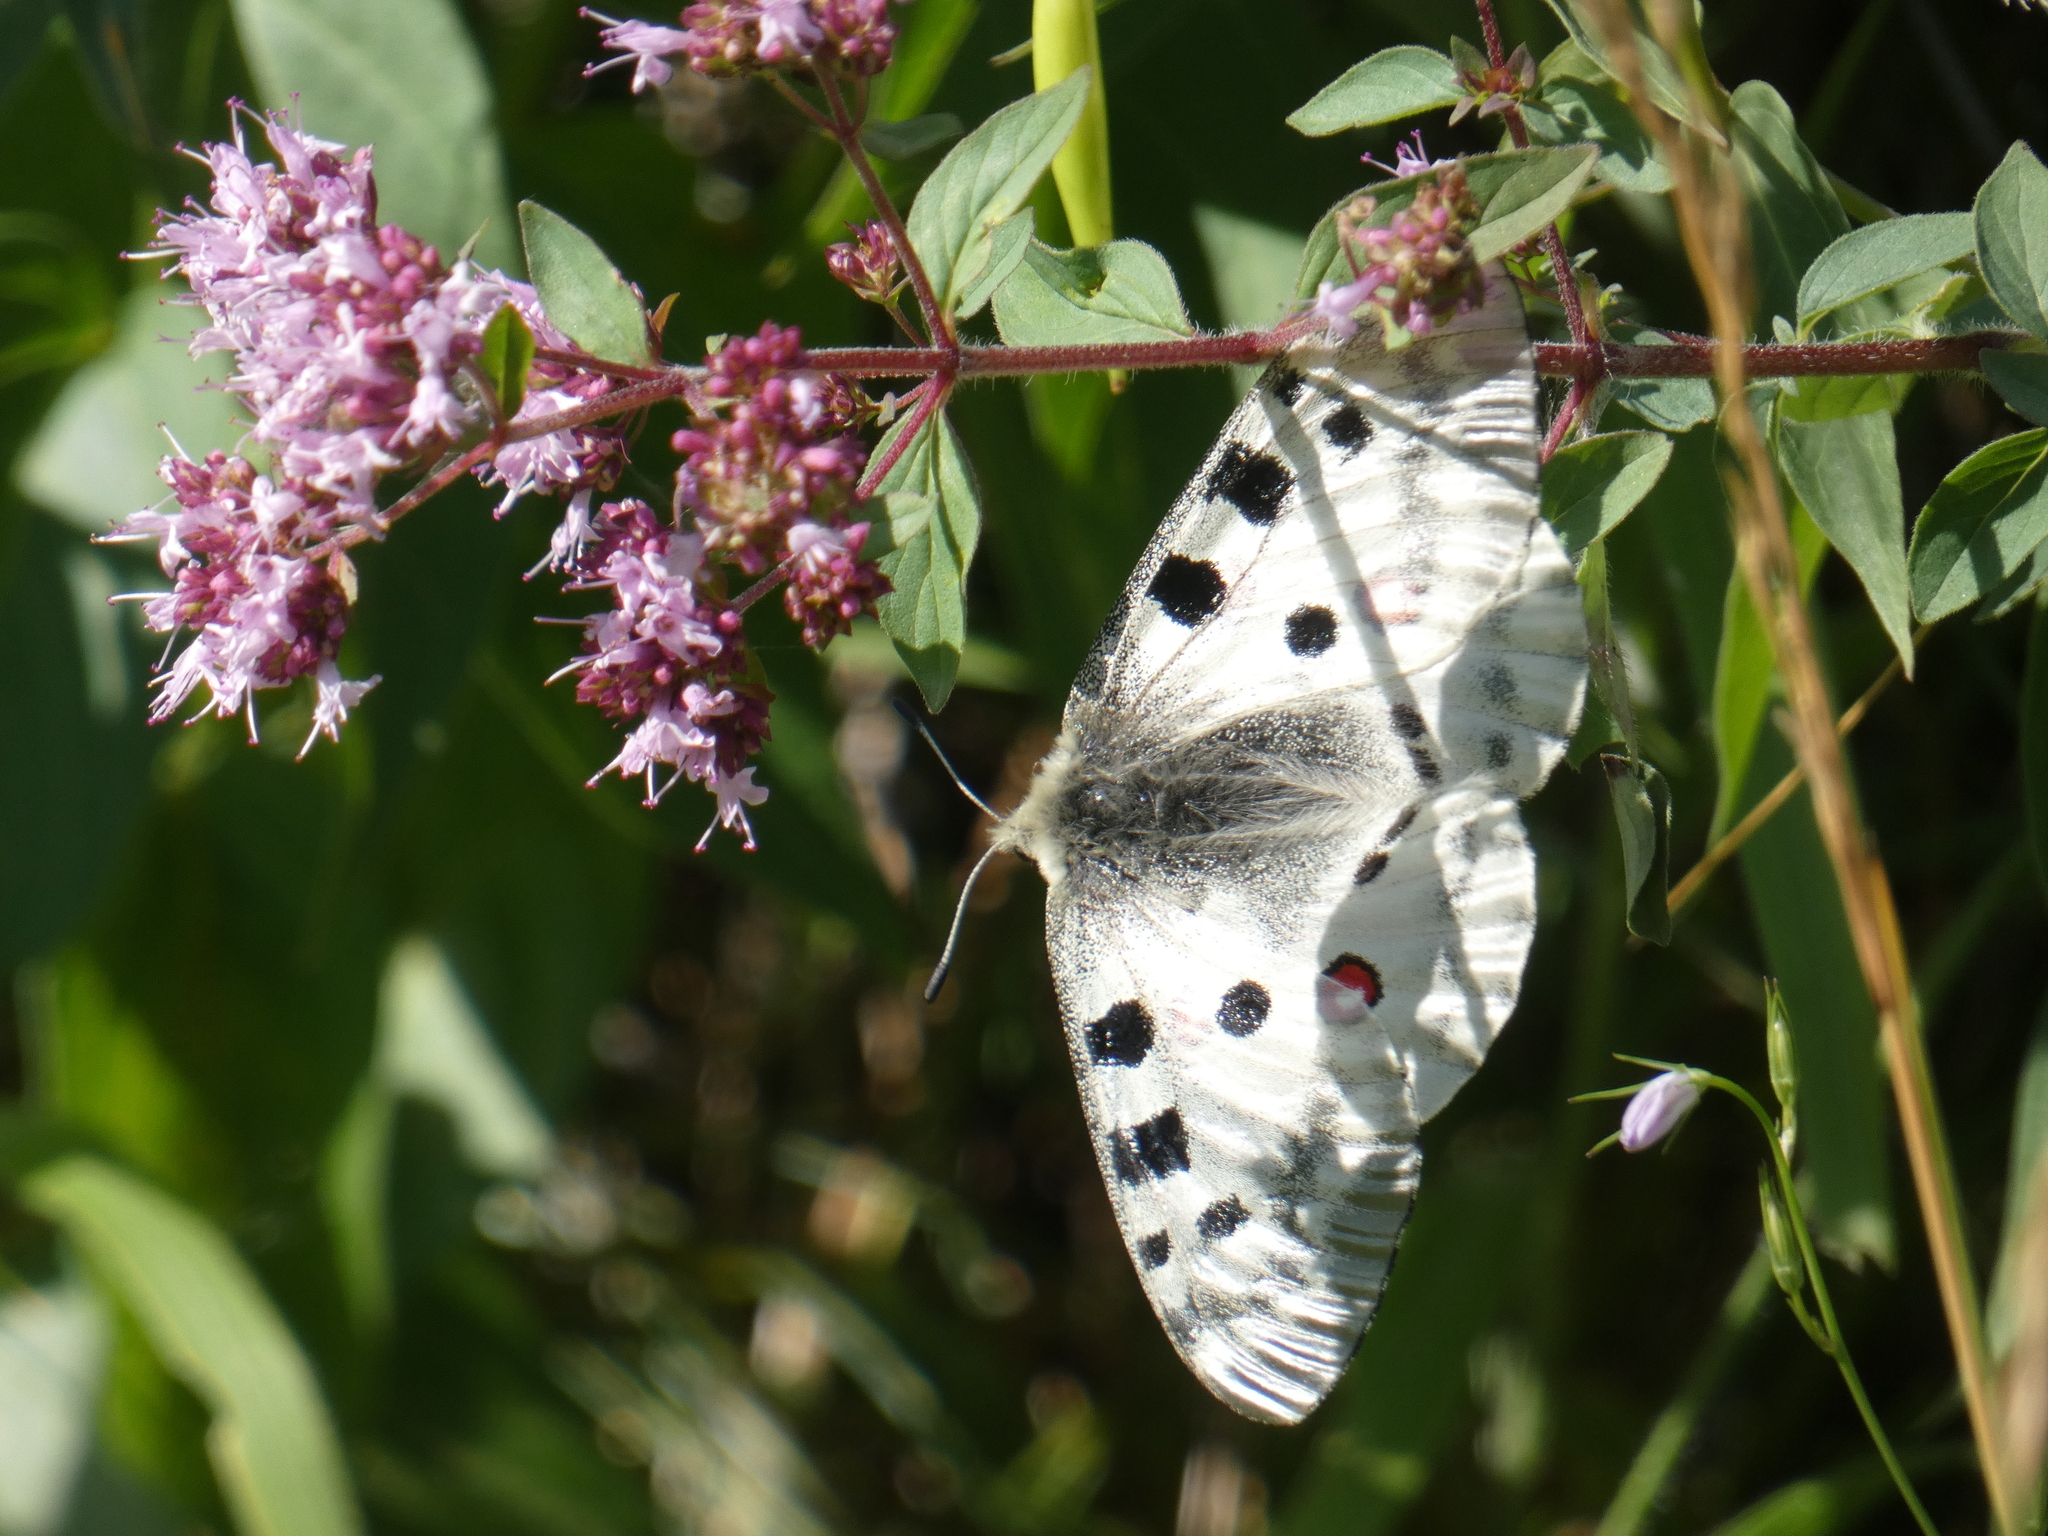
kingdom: Animalia
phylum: Arthropoda
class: Insecta
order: Lepidoptera
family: Papilionidae
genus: Parnassius
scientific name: Parnassius apollo
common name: Apollo
